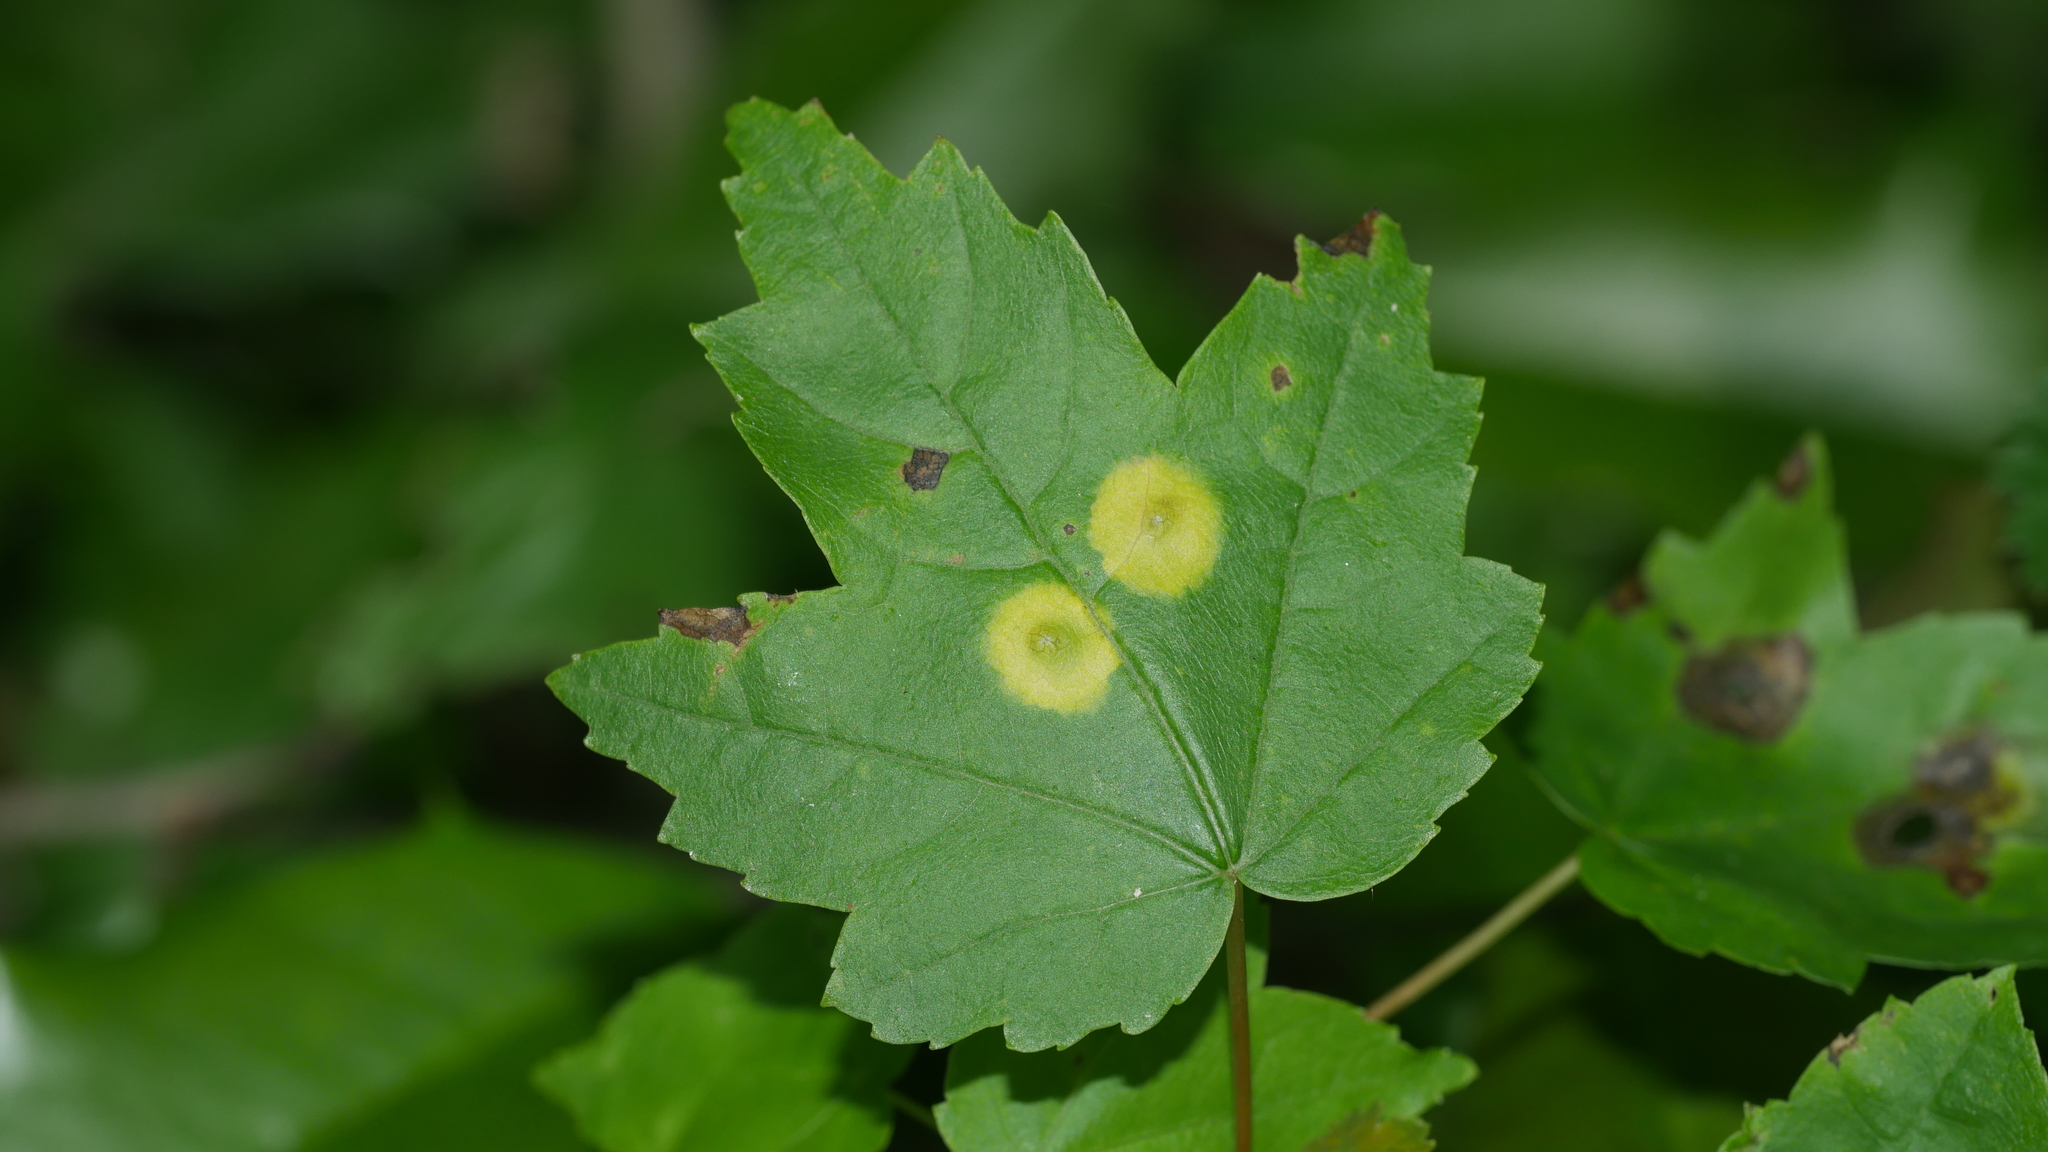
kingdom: Animalia
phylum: Arthropoda
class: Insecta
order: Diptera
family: Cecidomyiidae
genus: Acericecis
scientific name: Acericecis ocellaris
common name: Ocellate gall midge
